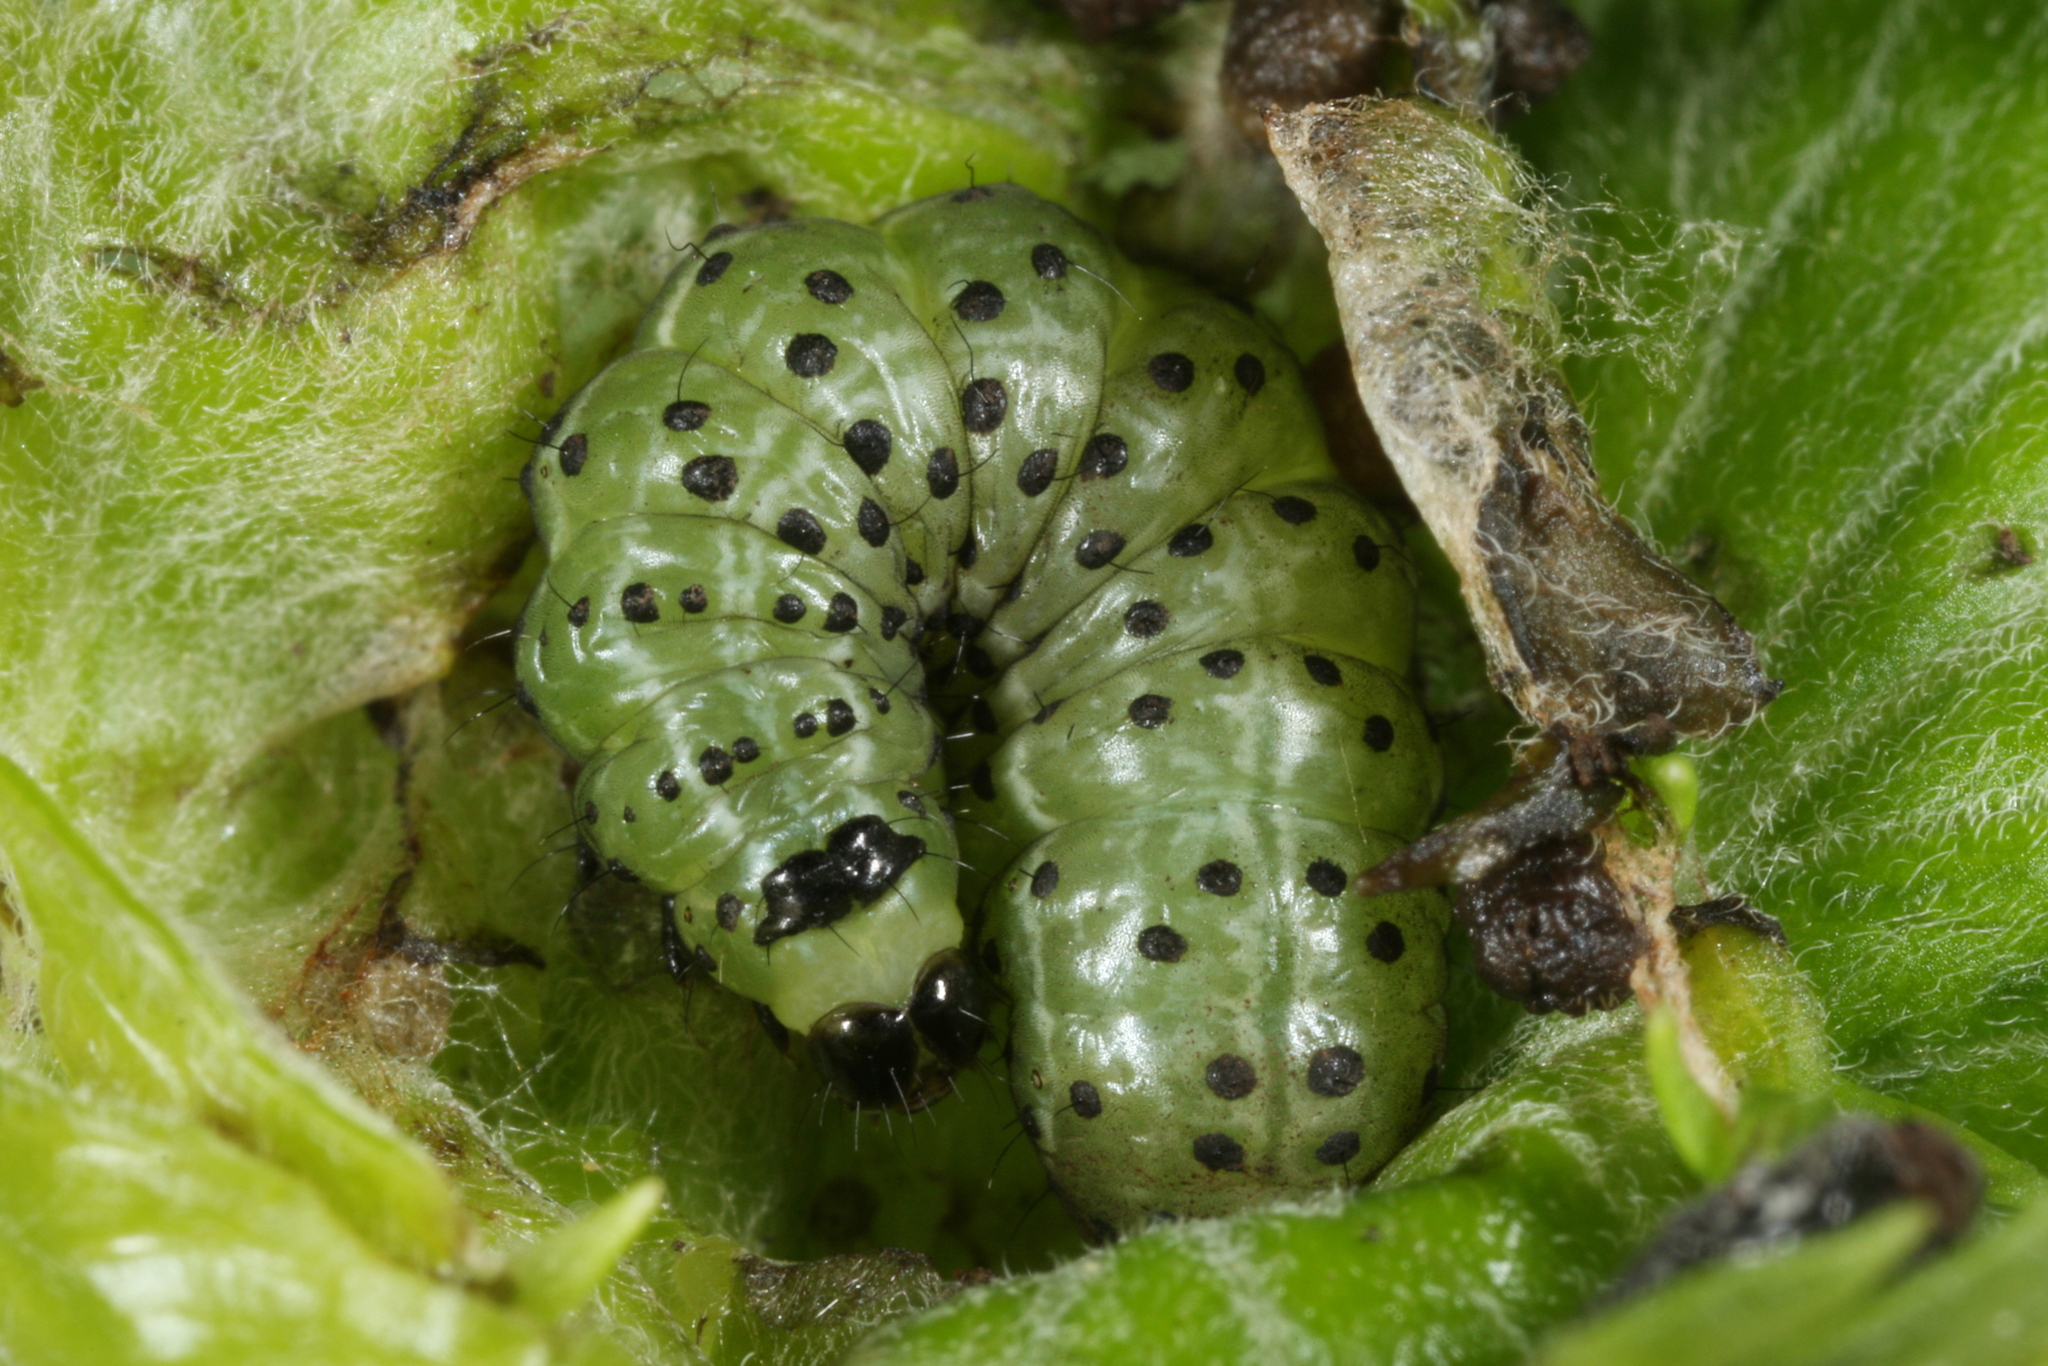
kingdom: Animalia
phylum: Arthropoda
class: Insecta
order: Lepidoptera
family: Noctuidae
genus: Polychrysia
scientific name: Polychrysia moneta
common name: Golden plusia
